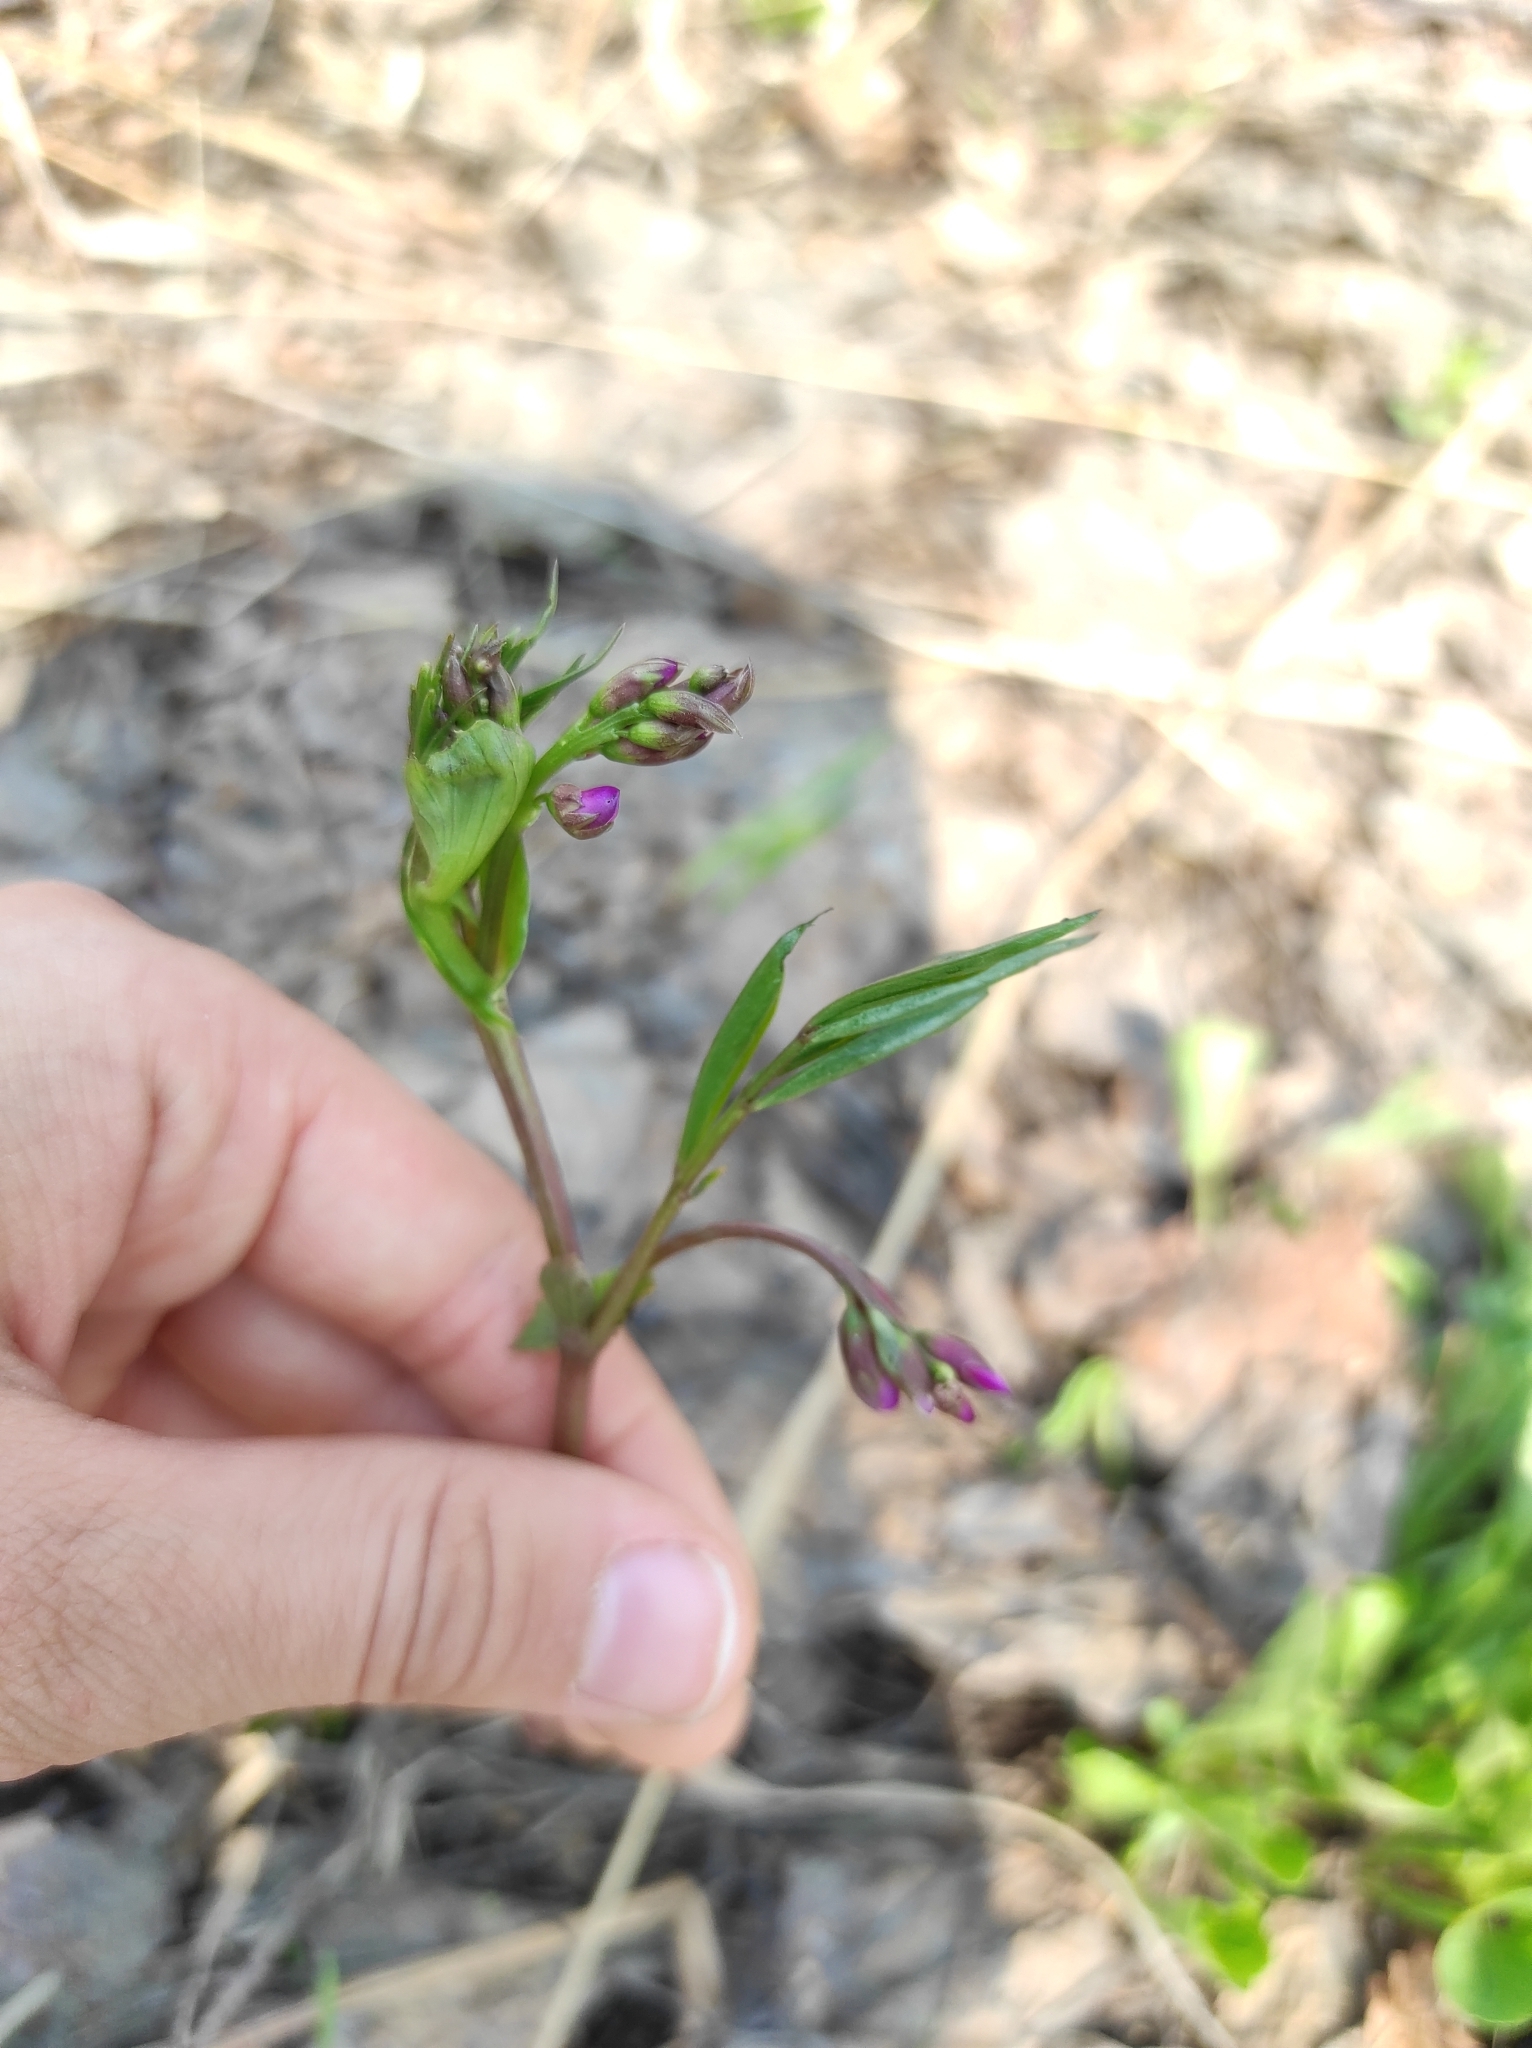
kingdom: Plantae
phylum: Tracheophyta
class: Magnoliopsida
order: Fabales
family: Fabaceae
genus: Lathyrus
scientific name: Lathyrus vernus
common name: Spring pea
